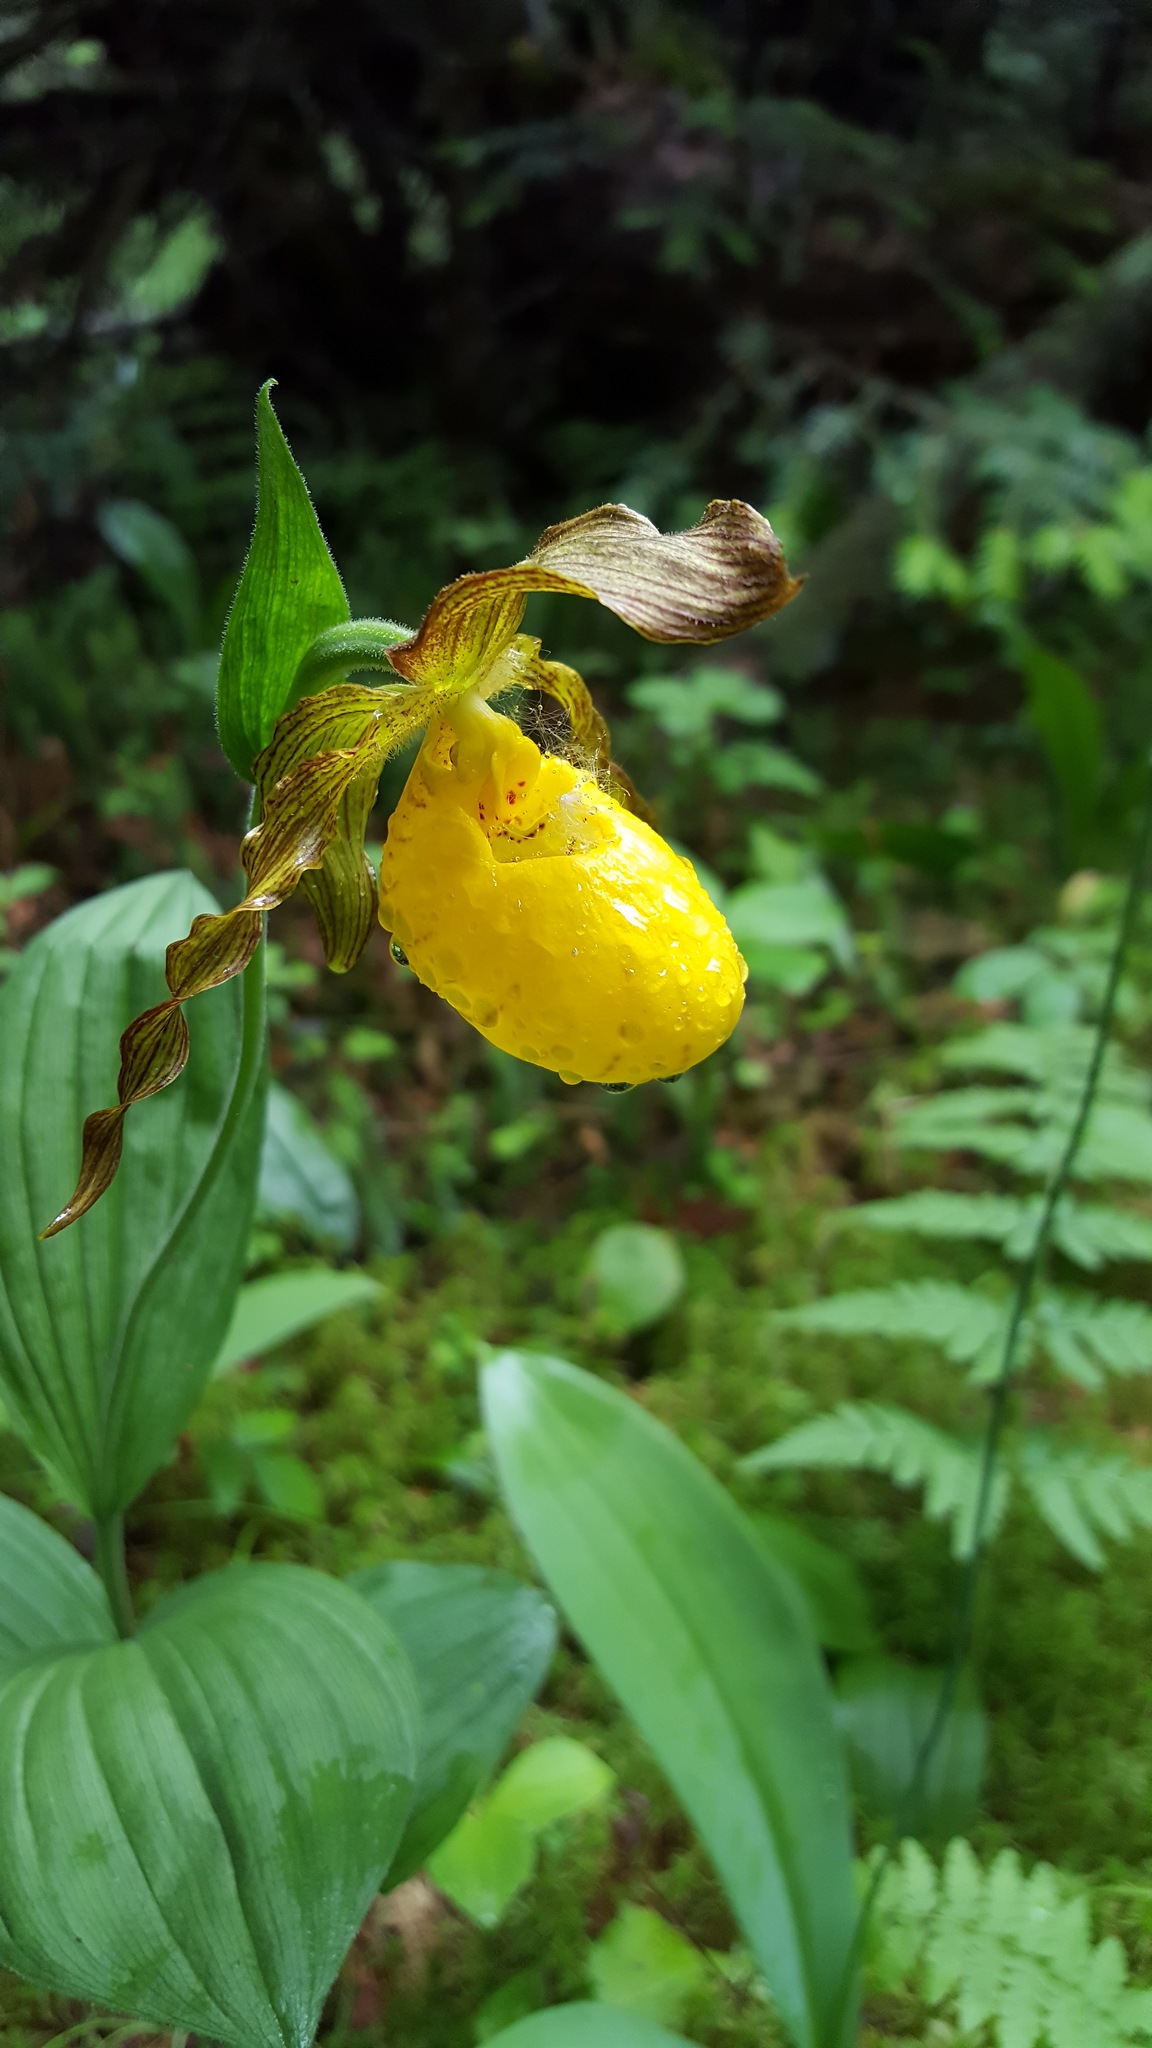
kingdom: Plantae
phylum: Tracheophyta
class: Liliopsida
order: Asparagales
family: Orchidaceae
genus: Cypripedium
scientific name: Cypripedium parviflorum
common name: American yellow lady's-slipper
